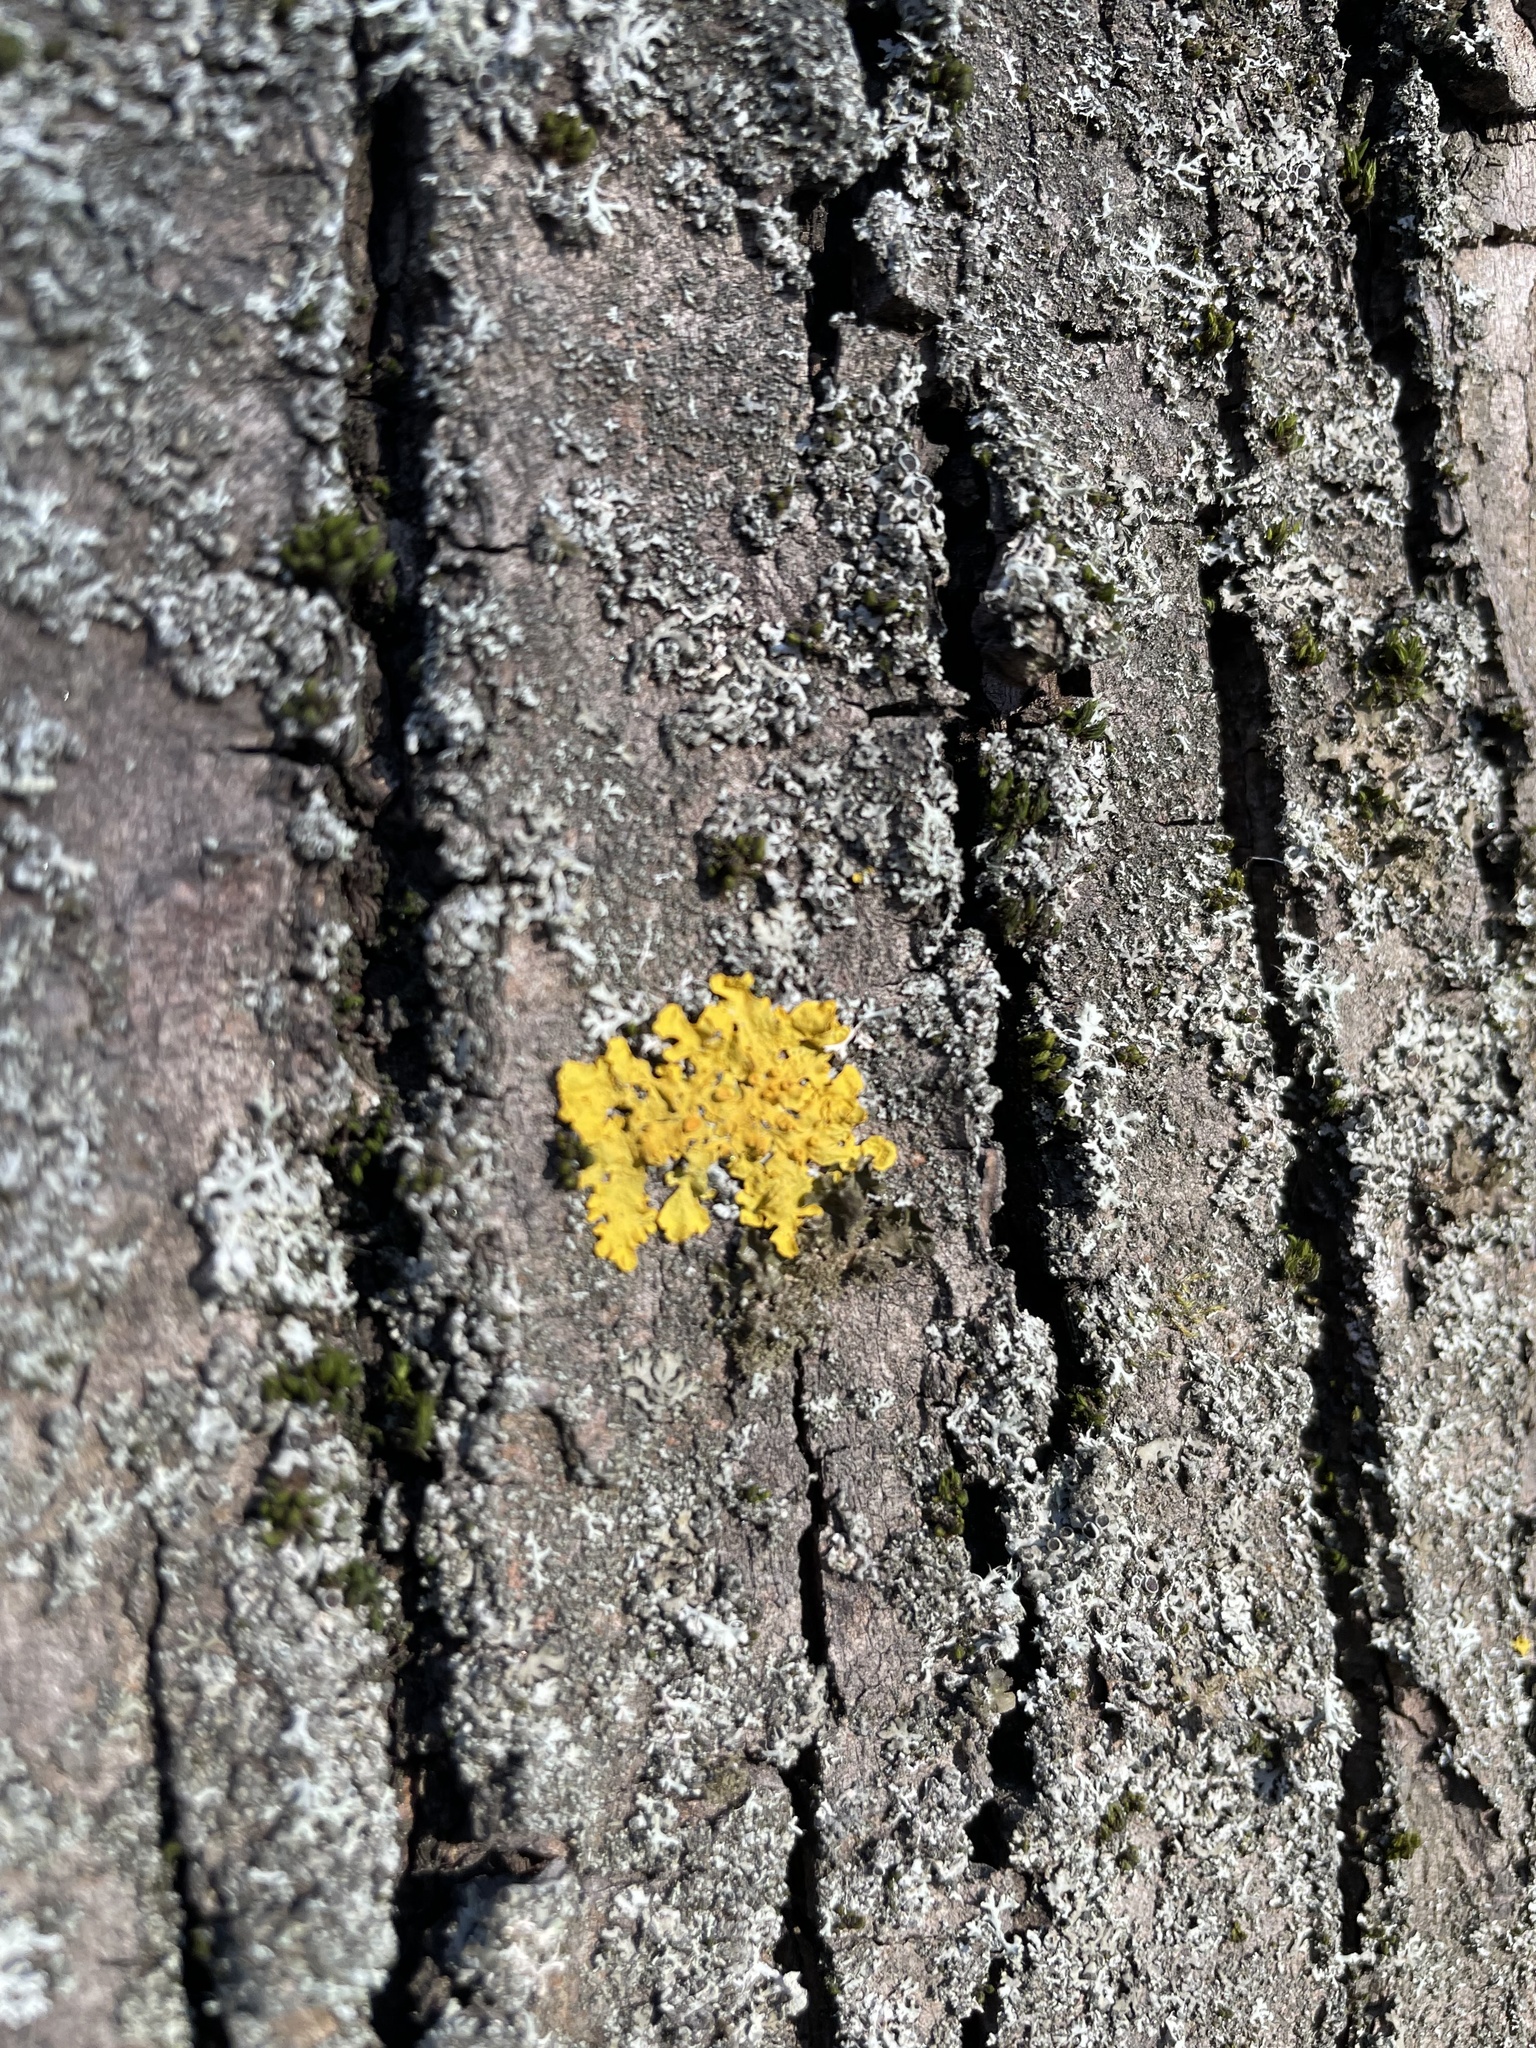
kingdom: Fungi
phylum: Ascomycota
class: Lecanoromycetes
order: Teloschistales
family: Teloschistaceae
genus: Xanthoria
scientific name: Xanthoria parietina
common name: Common orange lichen
